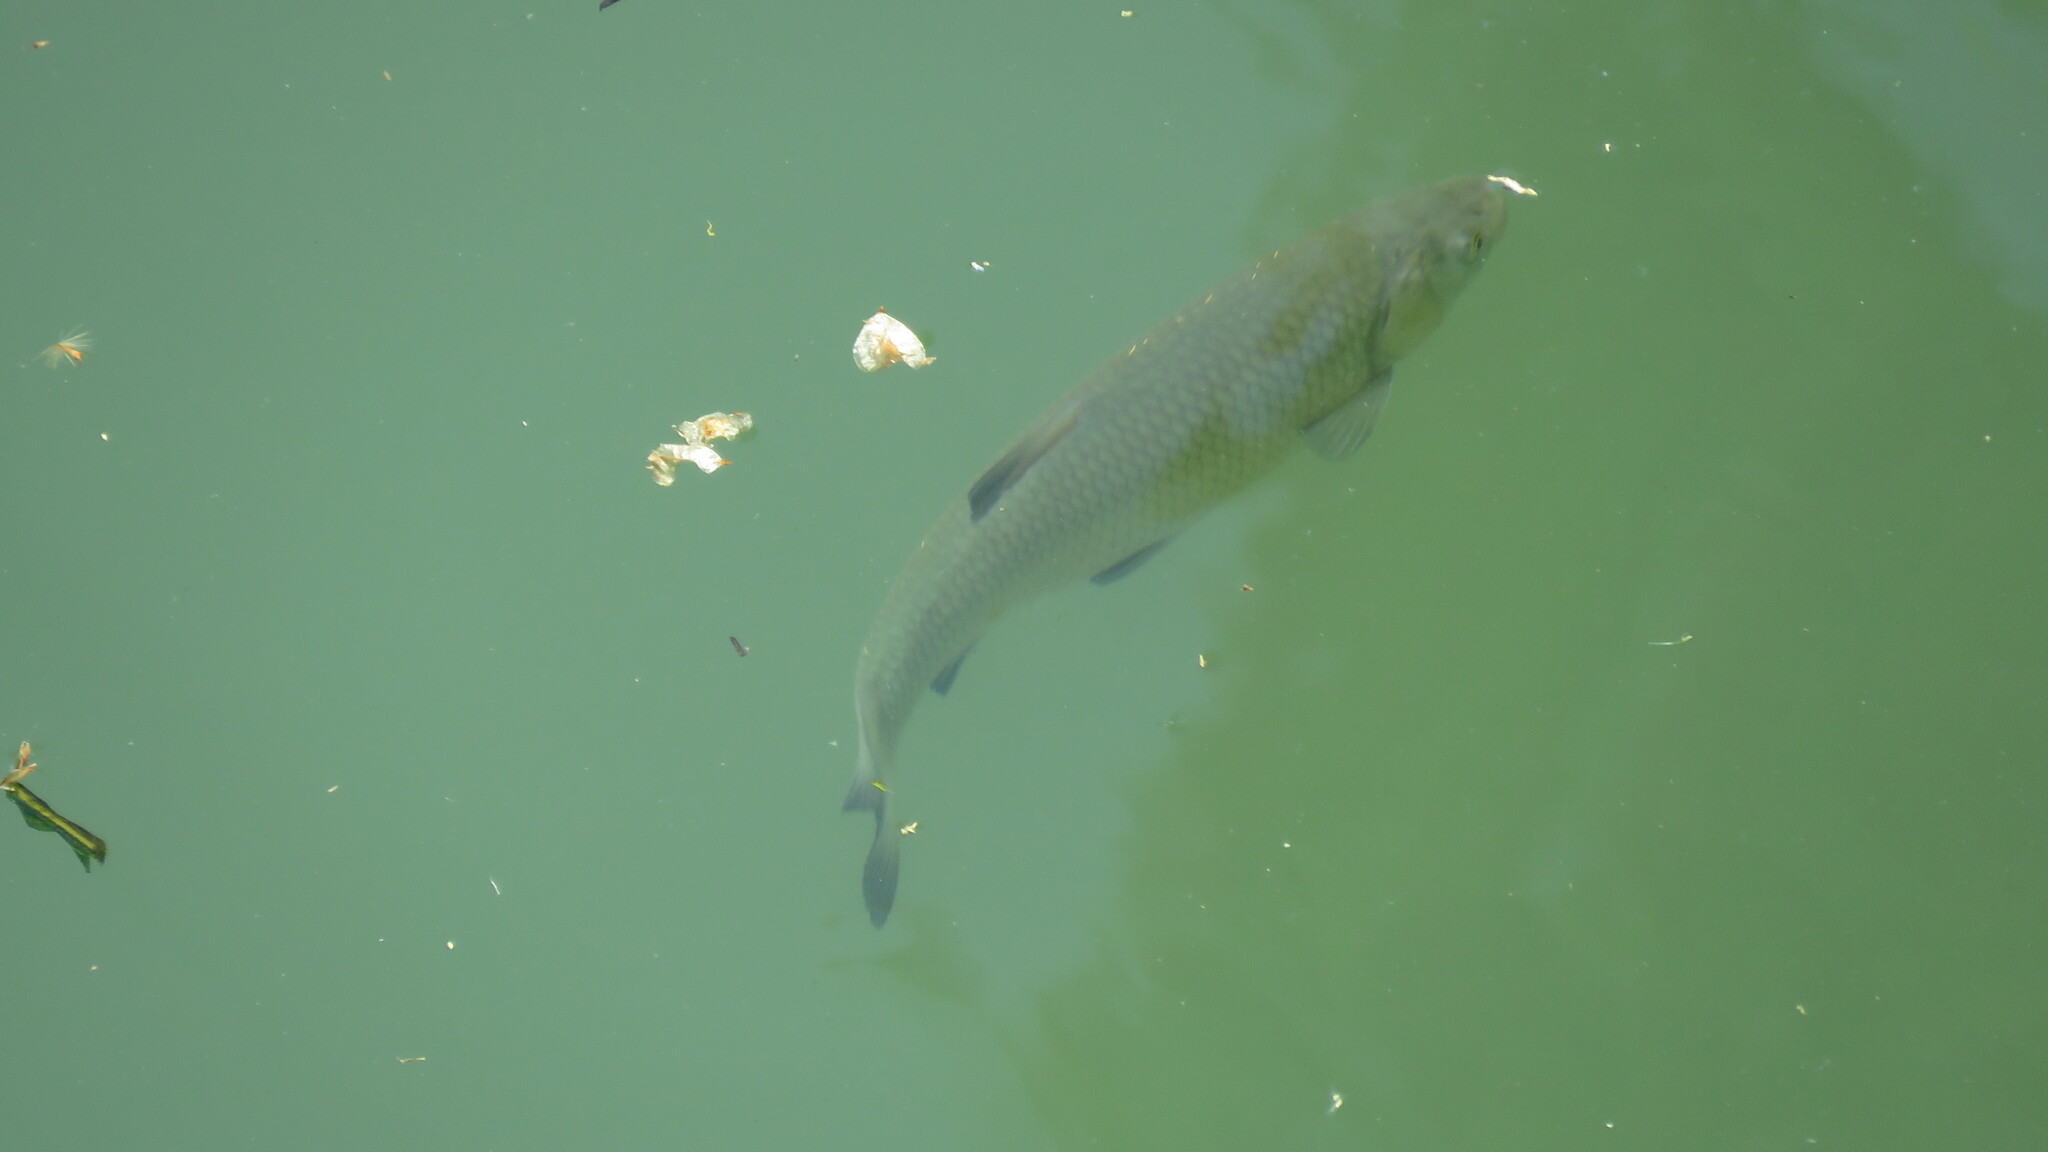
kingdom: Animalia
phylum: Chordata
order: Cypriniformes
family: Cyprinidae
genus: Squalius
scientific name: Squalius squalus
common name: Italian chub
